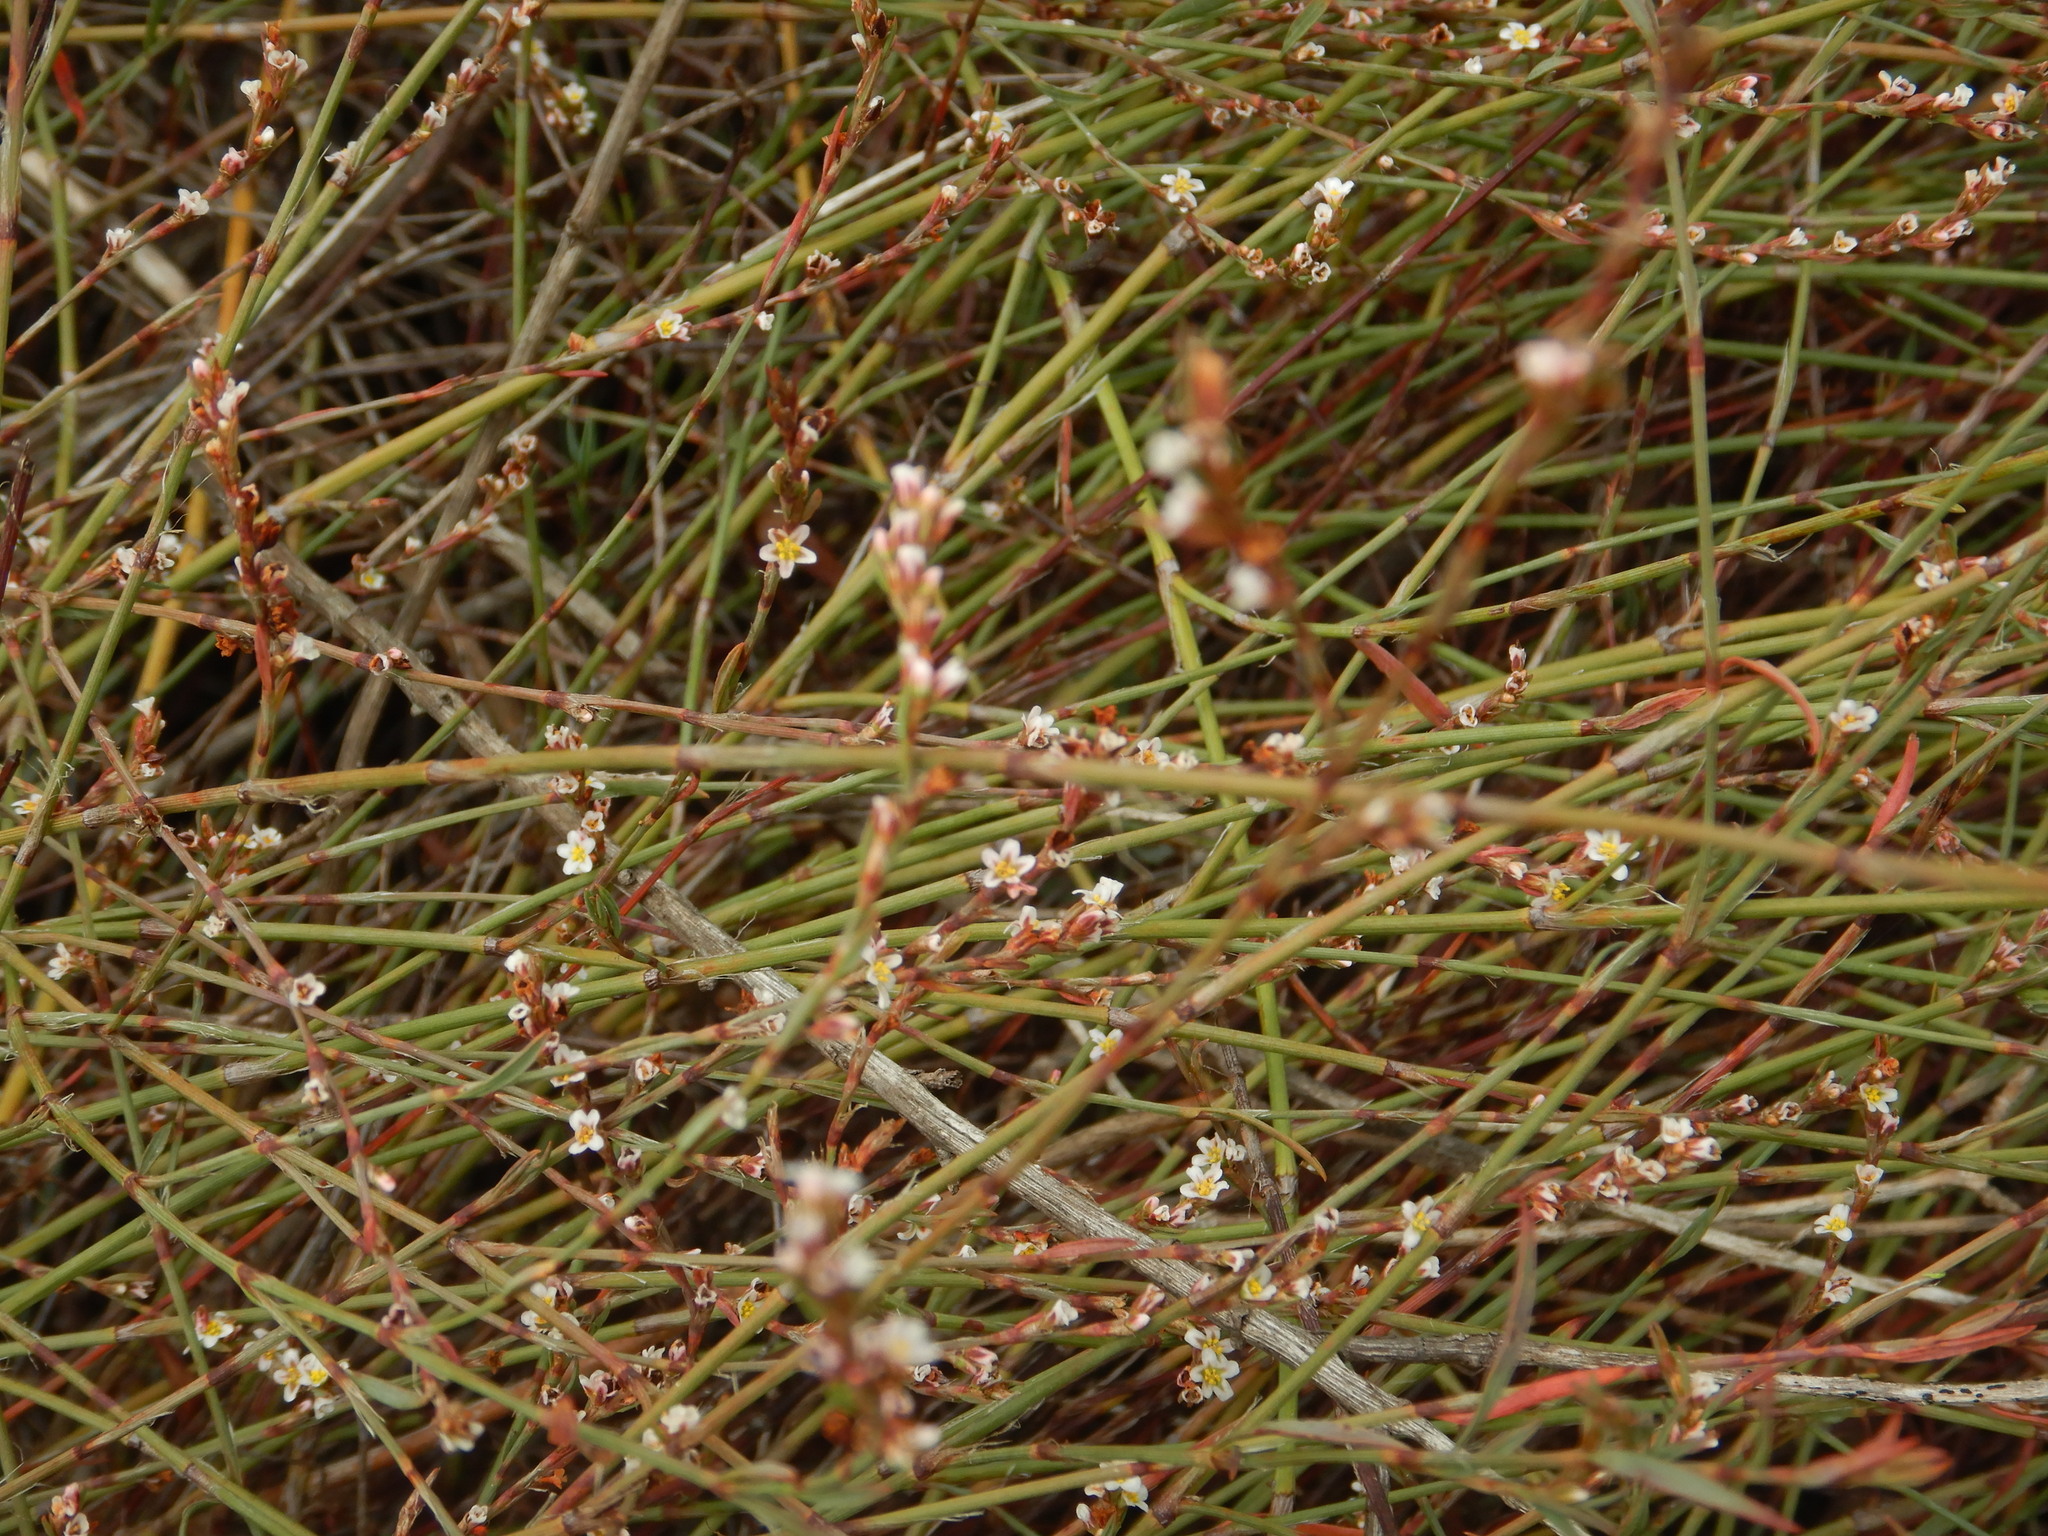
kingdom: Plantae
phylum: Tracheophyta
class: Magnoliopsida
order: Caryophyllales
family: Polygonaceae
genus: Polygonum
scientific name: Polygonum equisetiforme
